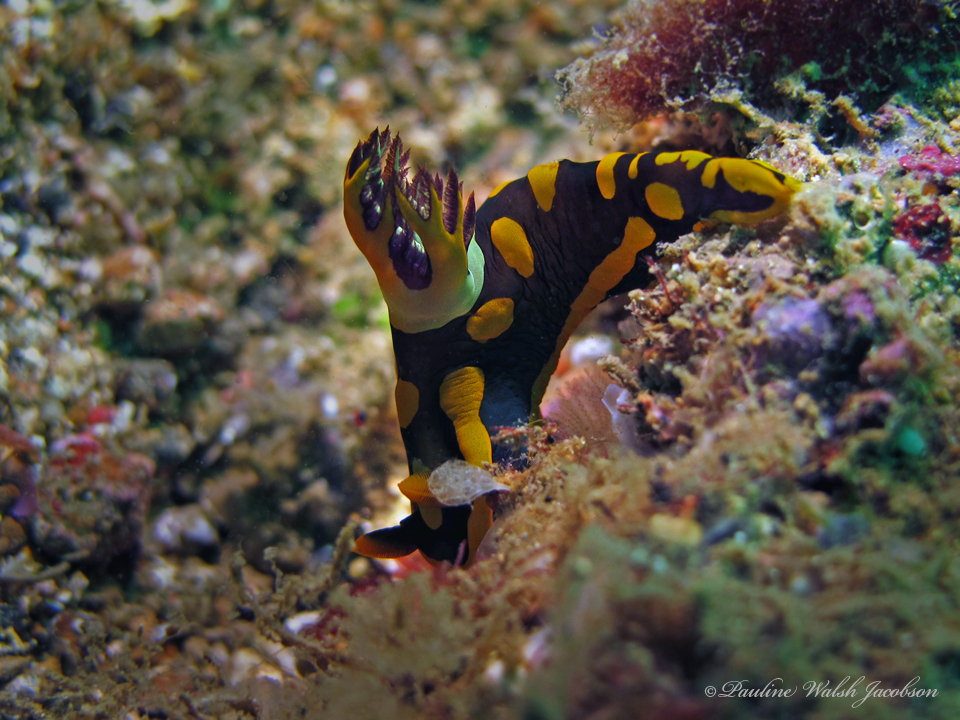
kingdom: Animalia
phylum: Mollusca
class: Gastropoda
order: Nudibranchia
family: Polyceridae
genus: Tambja
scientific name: Tambja gabrielae
